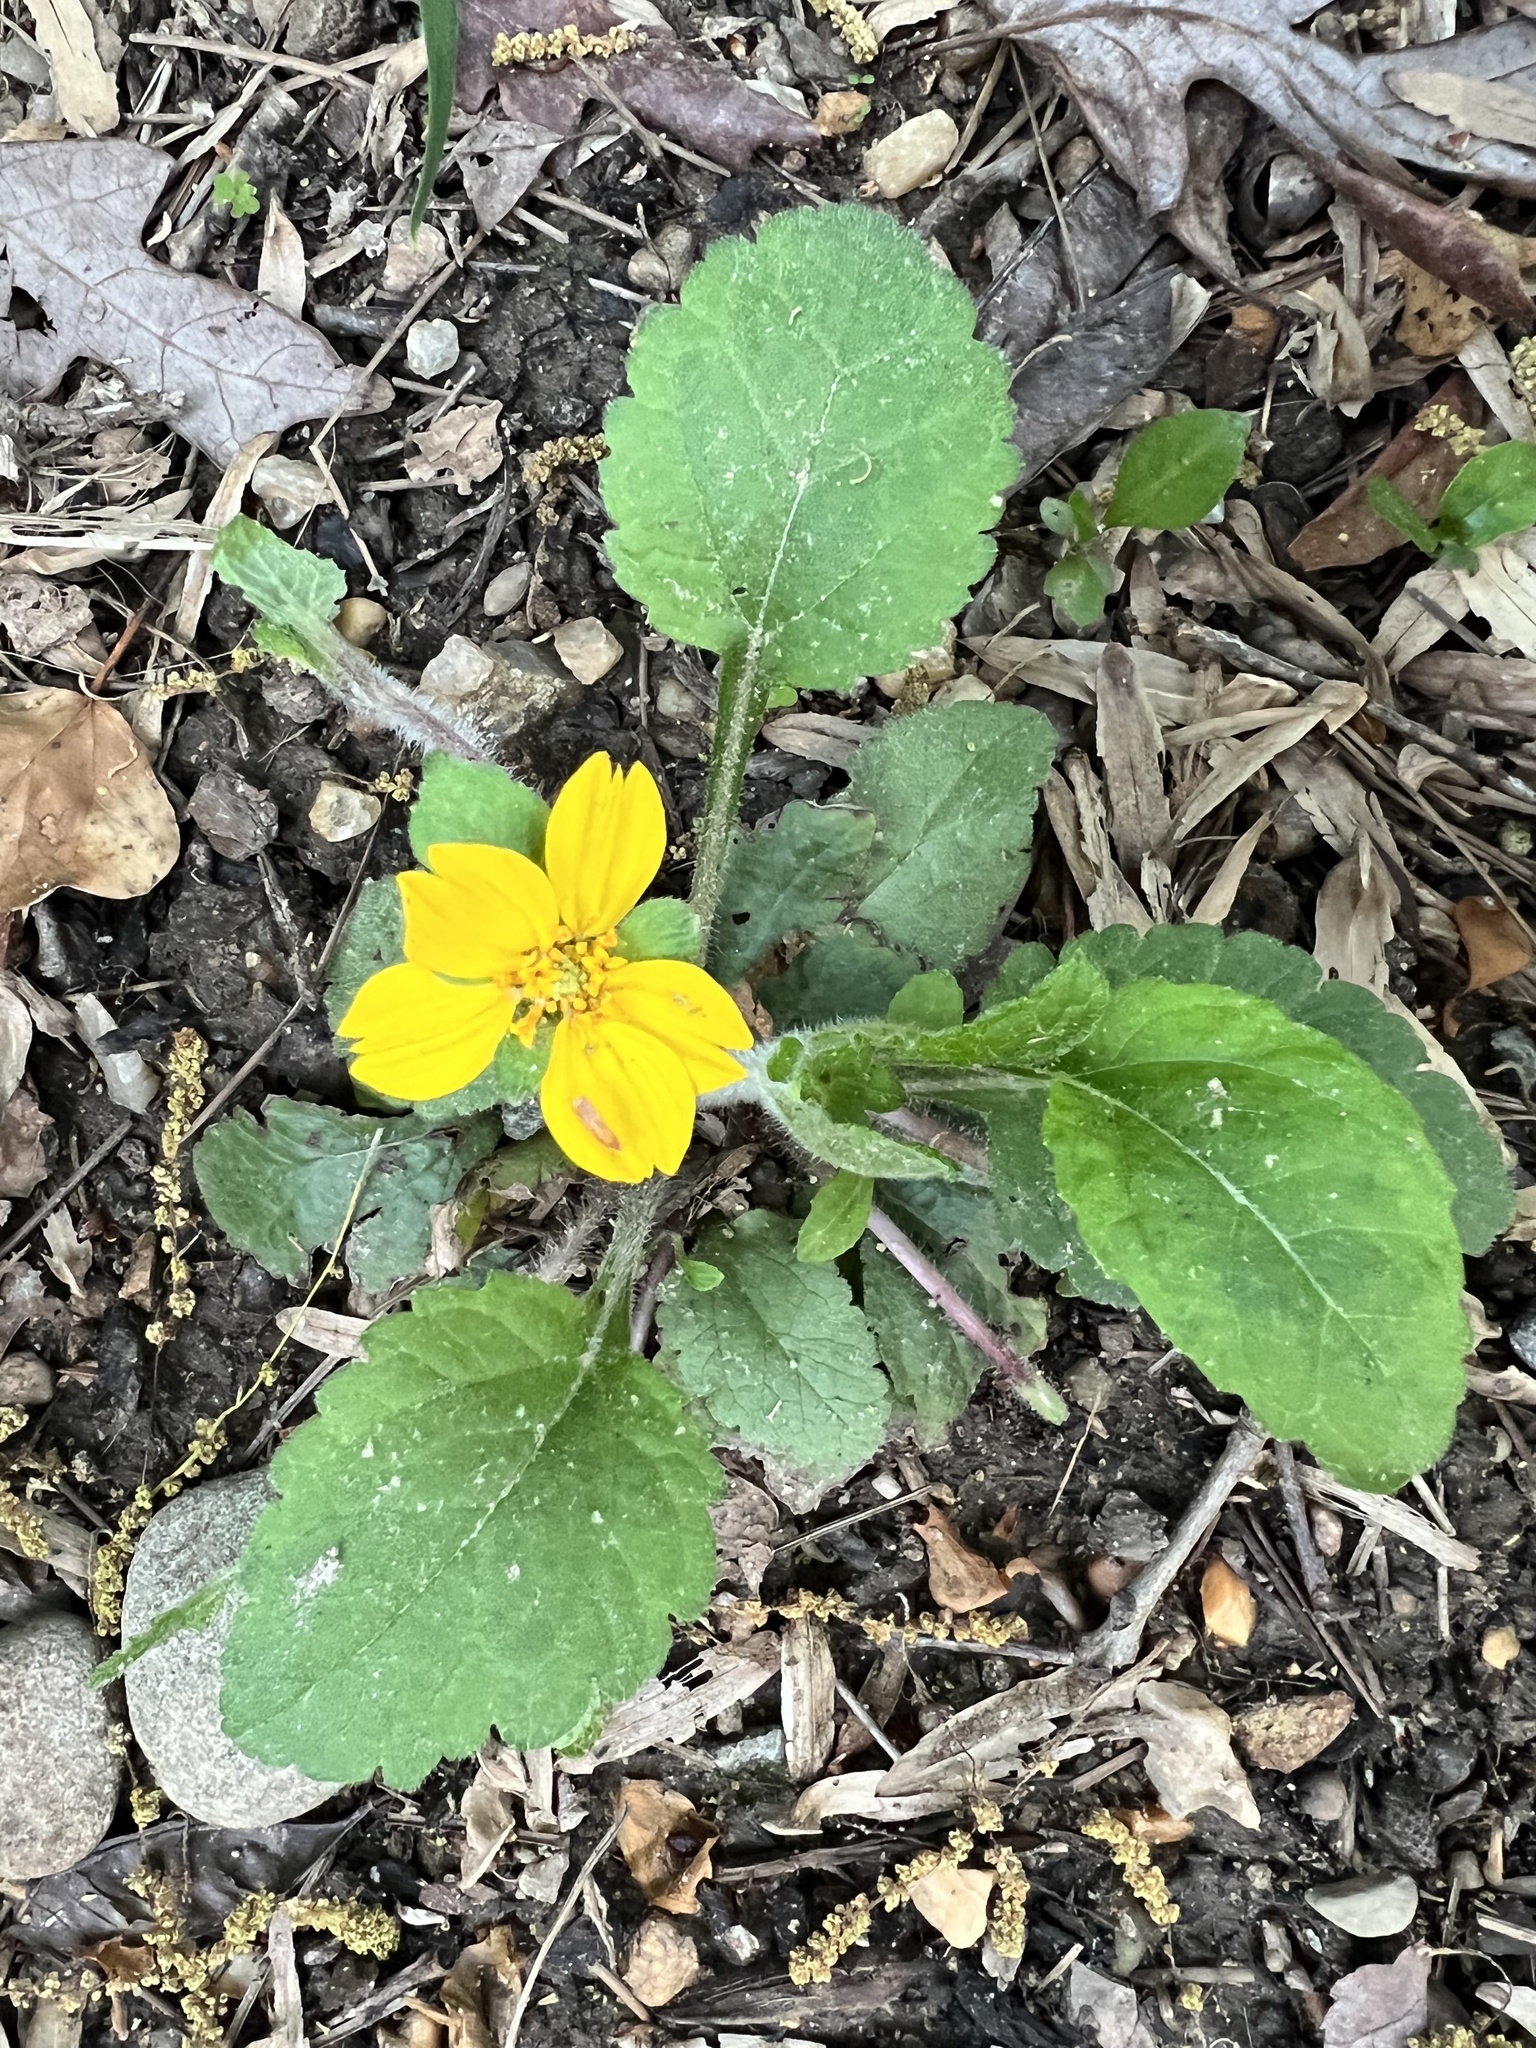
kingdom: Plantae
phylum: Tracheophyta
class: Magnoliopsida
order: Asterales
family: Asteraceae
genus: Chrysogonum
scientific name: Chrysogonum virginianum
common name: Golden-knee
